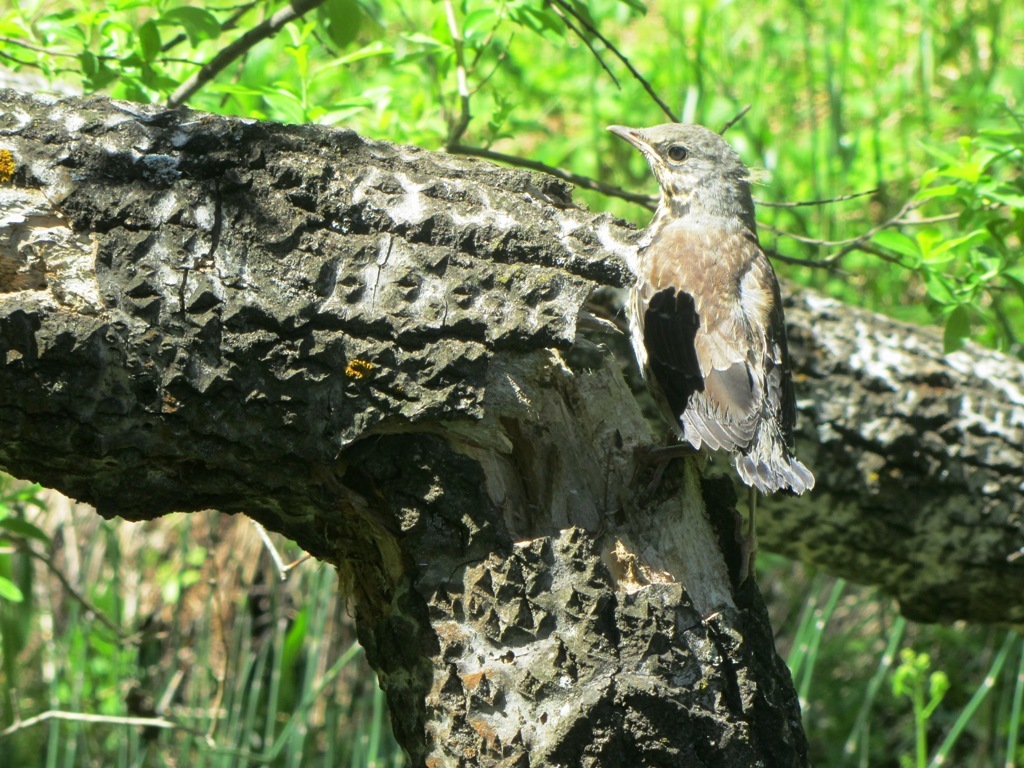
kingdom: Animalia
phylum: Chordata
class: Aves
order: Passeriformes
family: Turdidae
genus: Turdus
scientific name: Turdus pilaris
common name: Fieldfare
